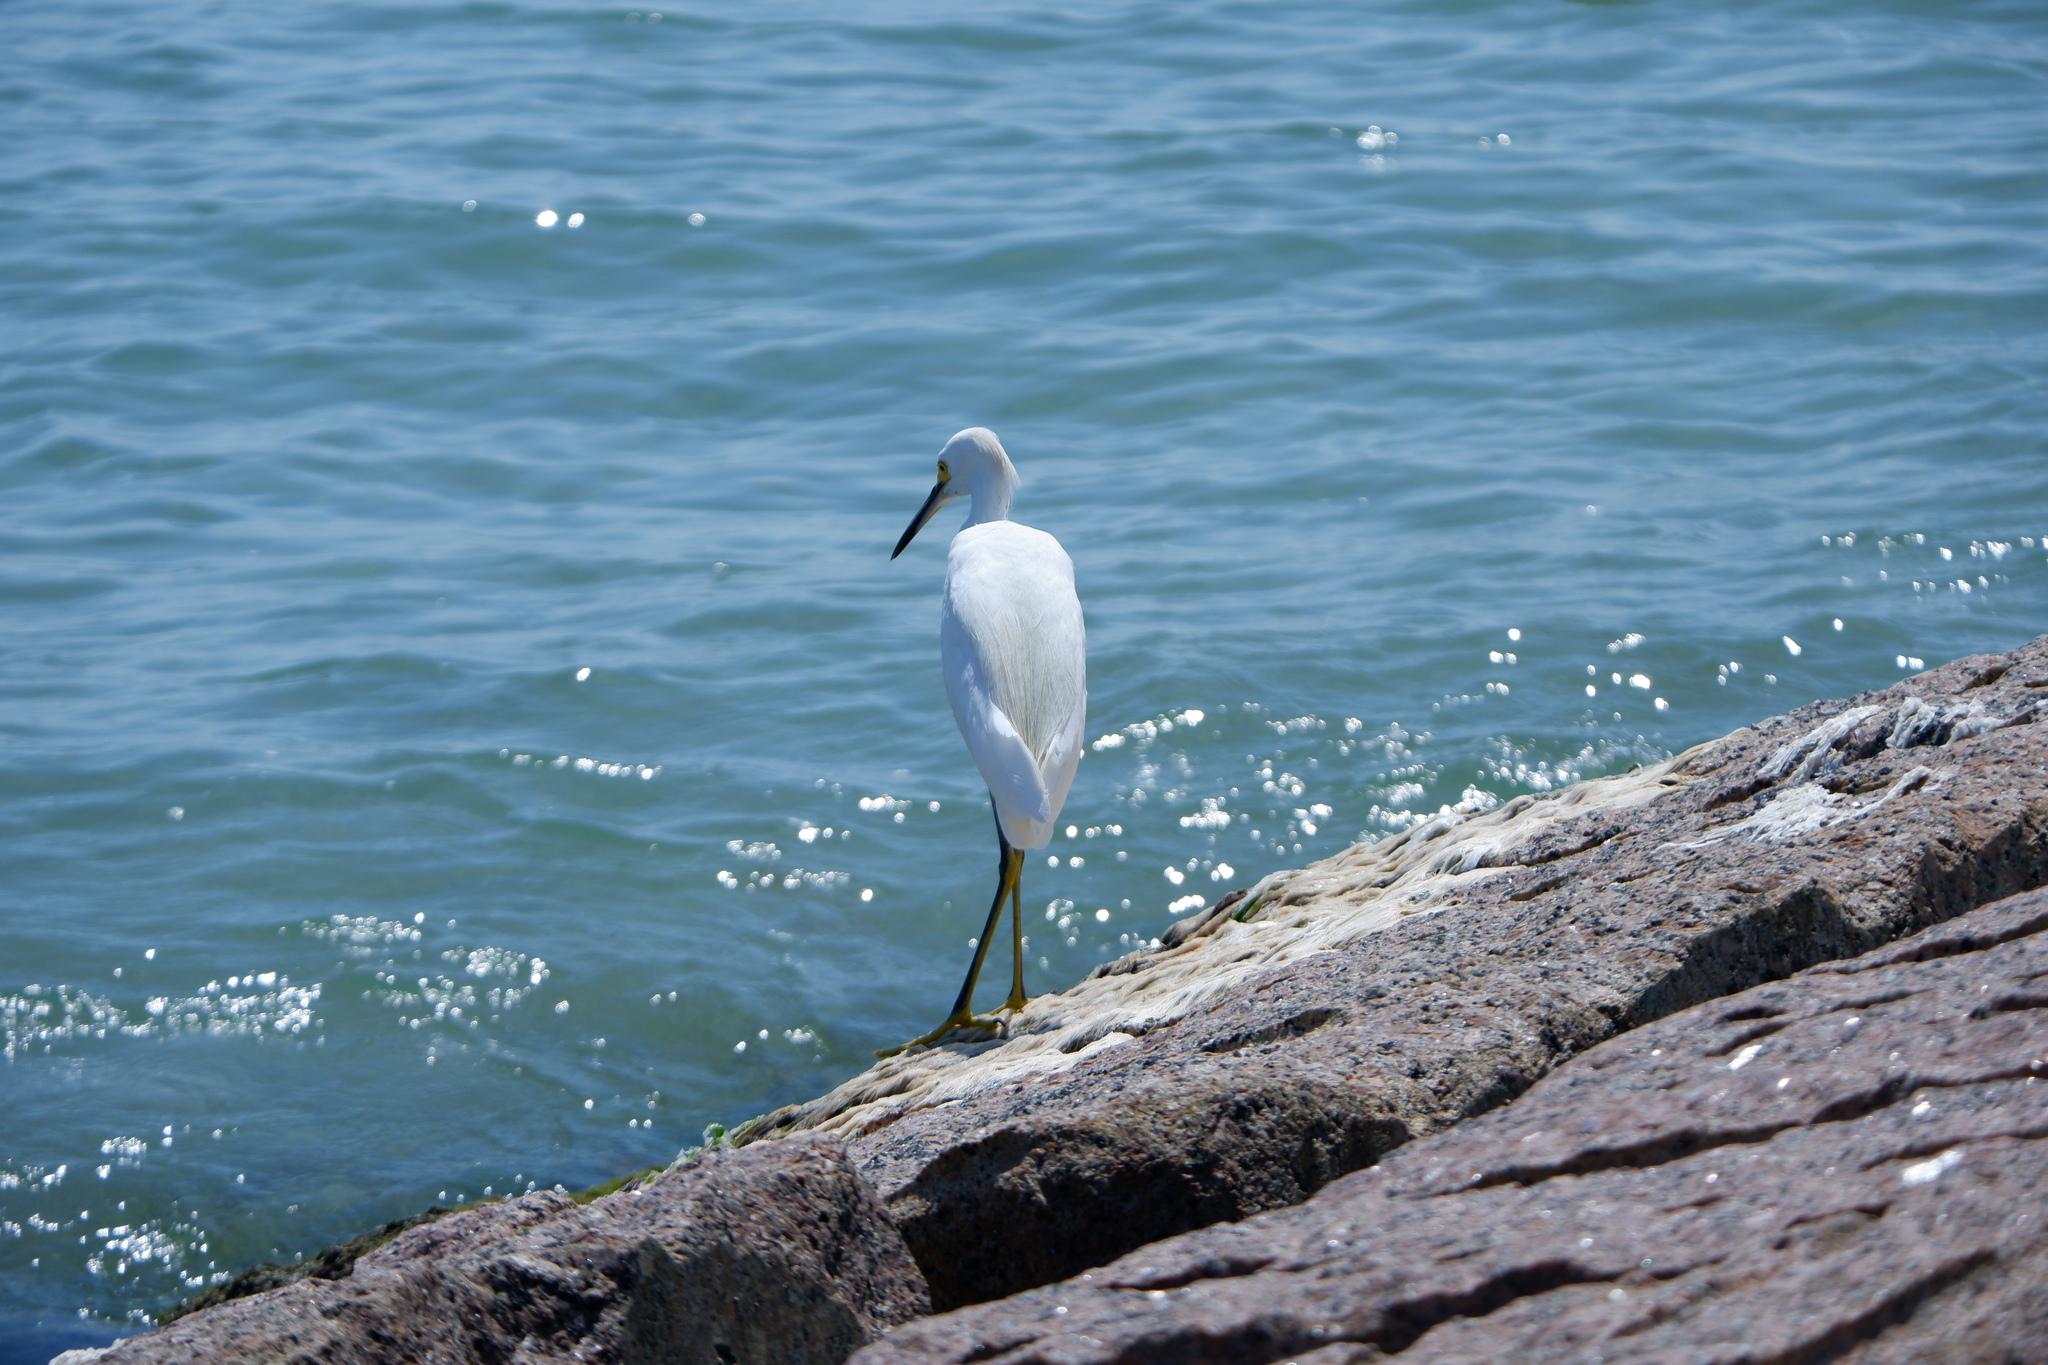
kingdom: Animalia
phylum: Chordata
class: Aves
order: Pelecaniformes
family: Ardeidae
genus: Egretta
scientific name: Egretta thula
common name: Snowy egret
